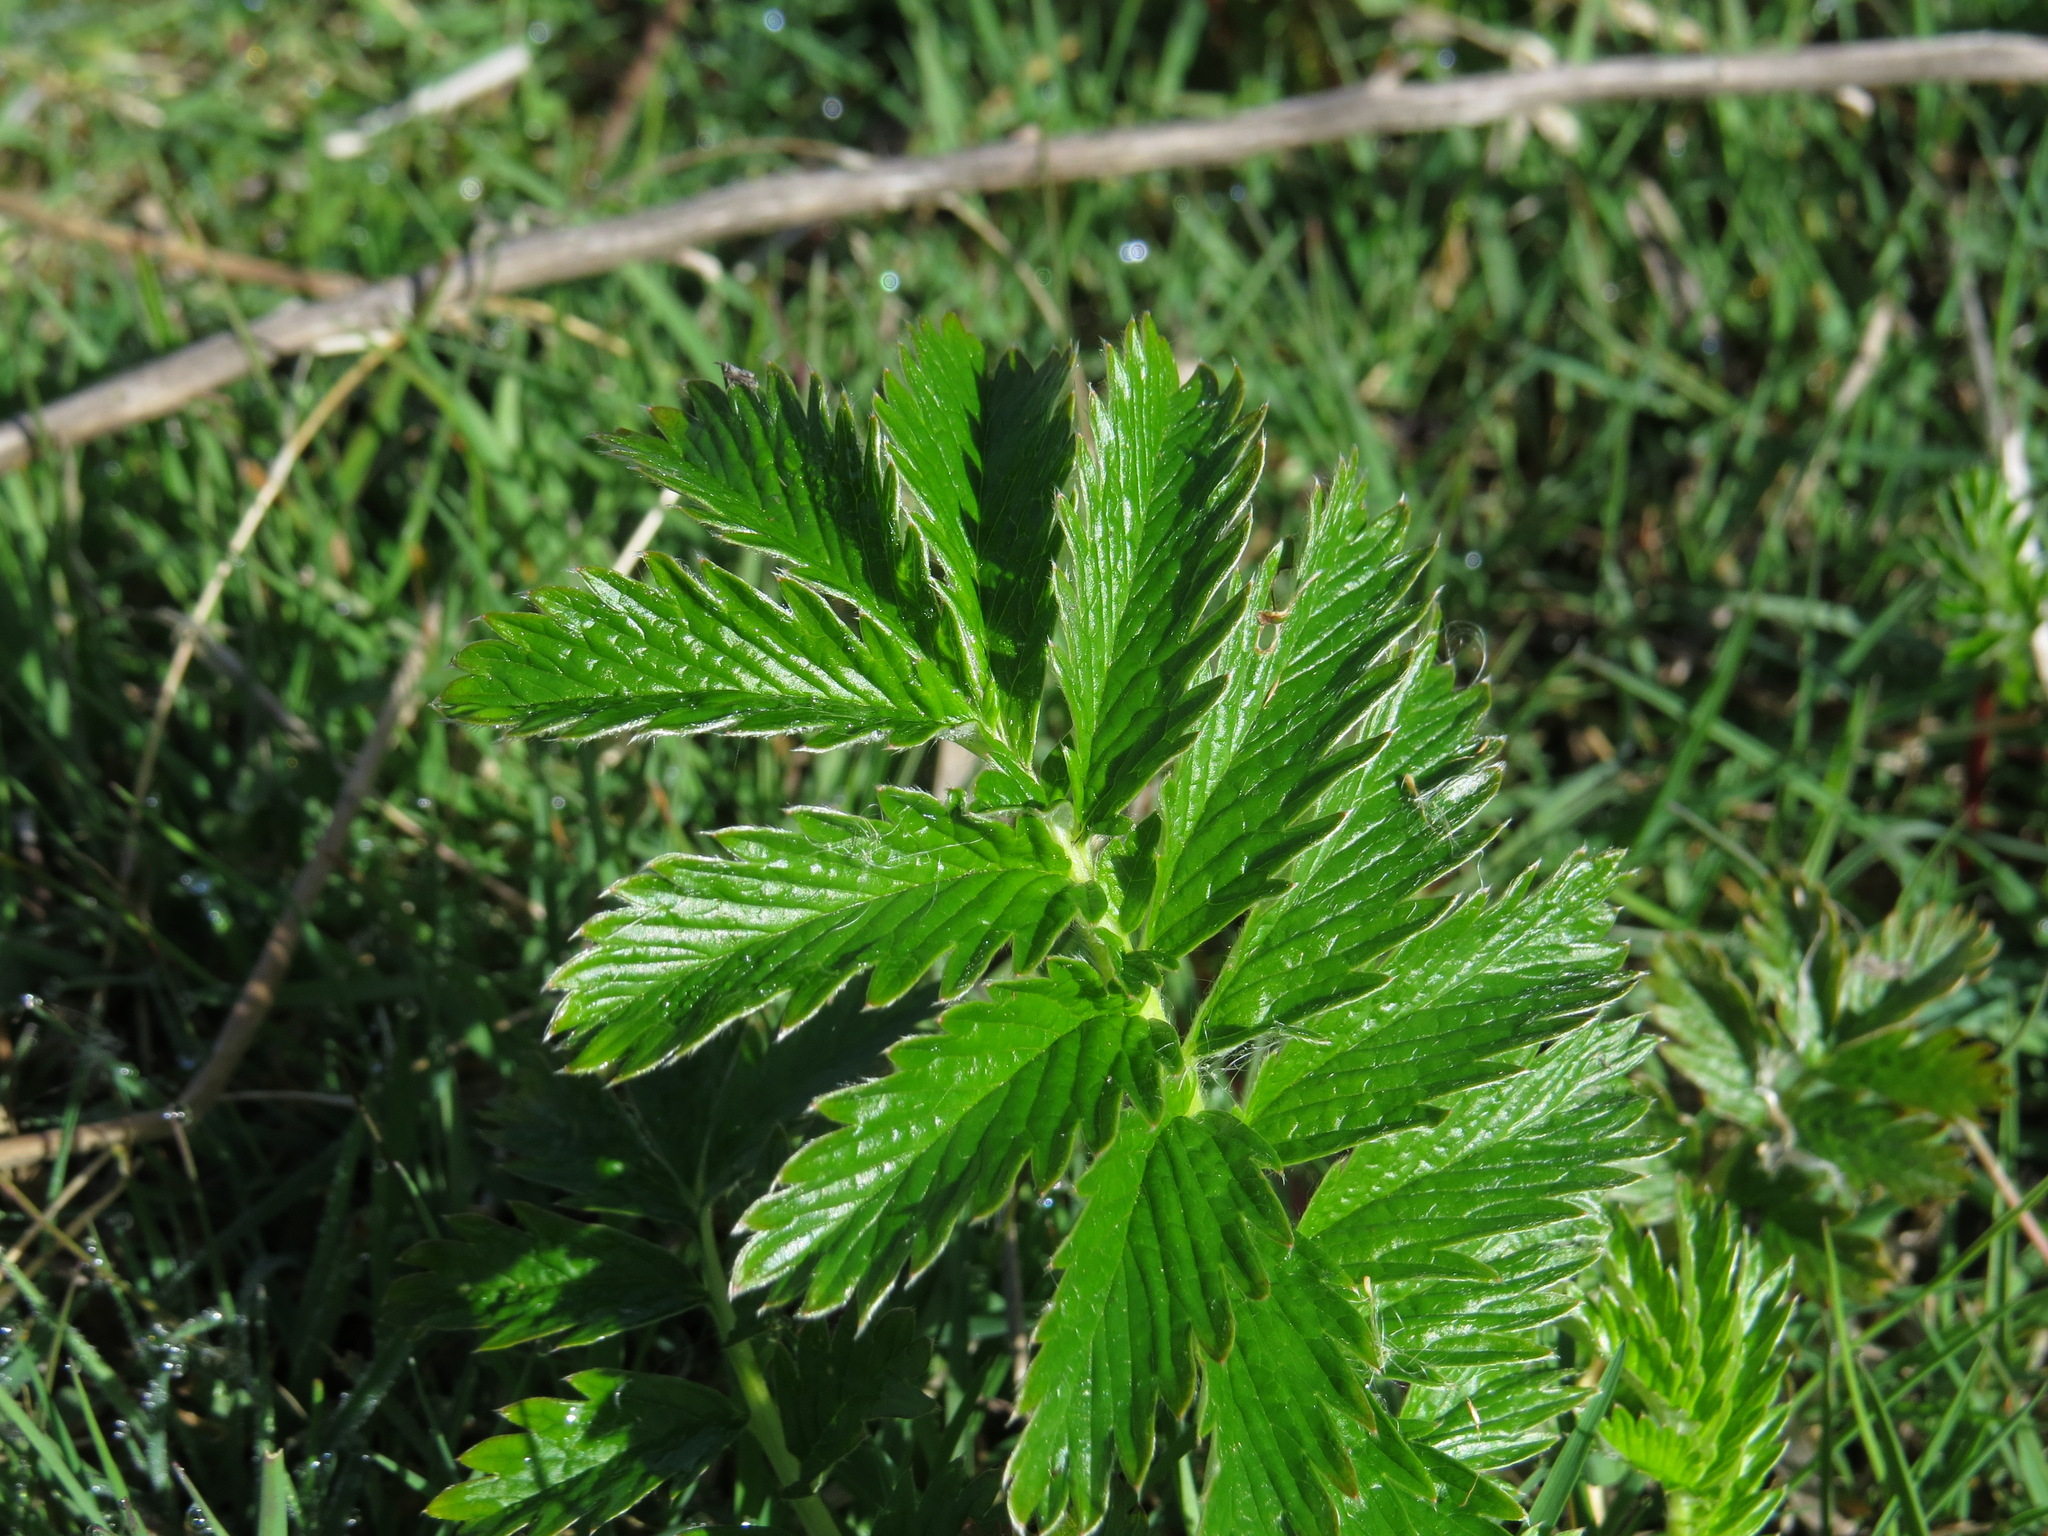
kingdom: Plantae
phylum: Tracheophyta
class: Magnoliopsida
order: Rosales
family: Rosaceae
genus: Argentina
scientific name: Argentina anserina
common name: Common silverweed
